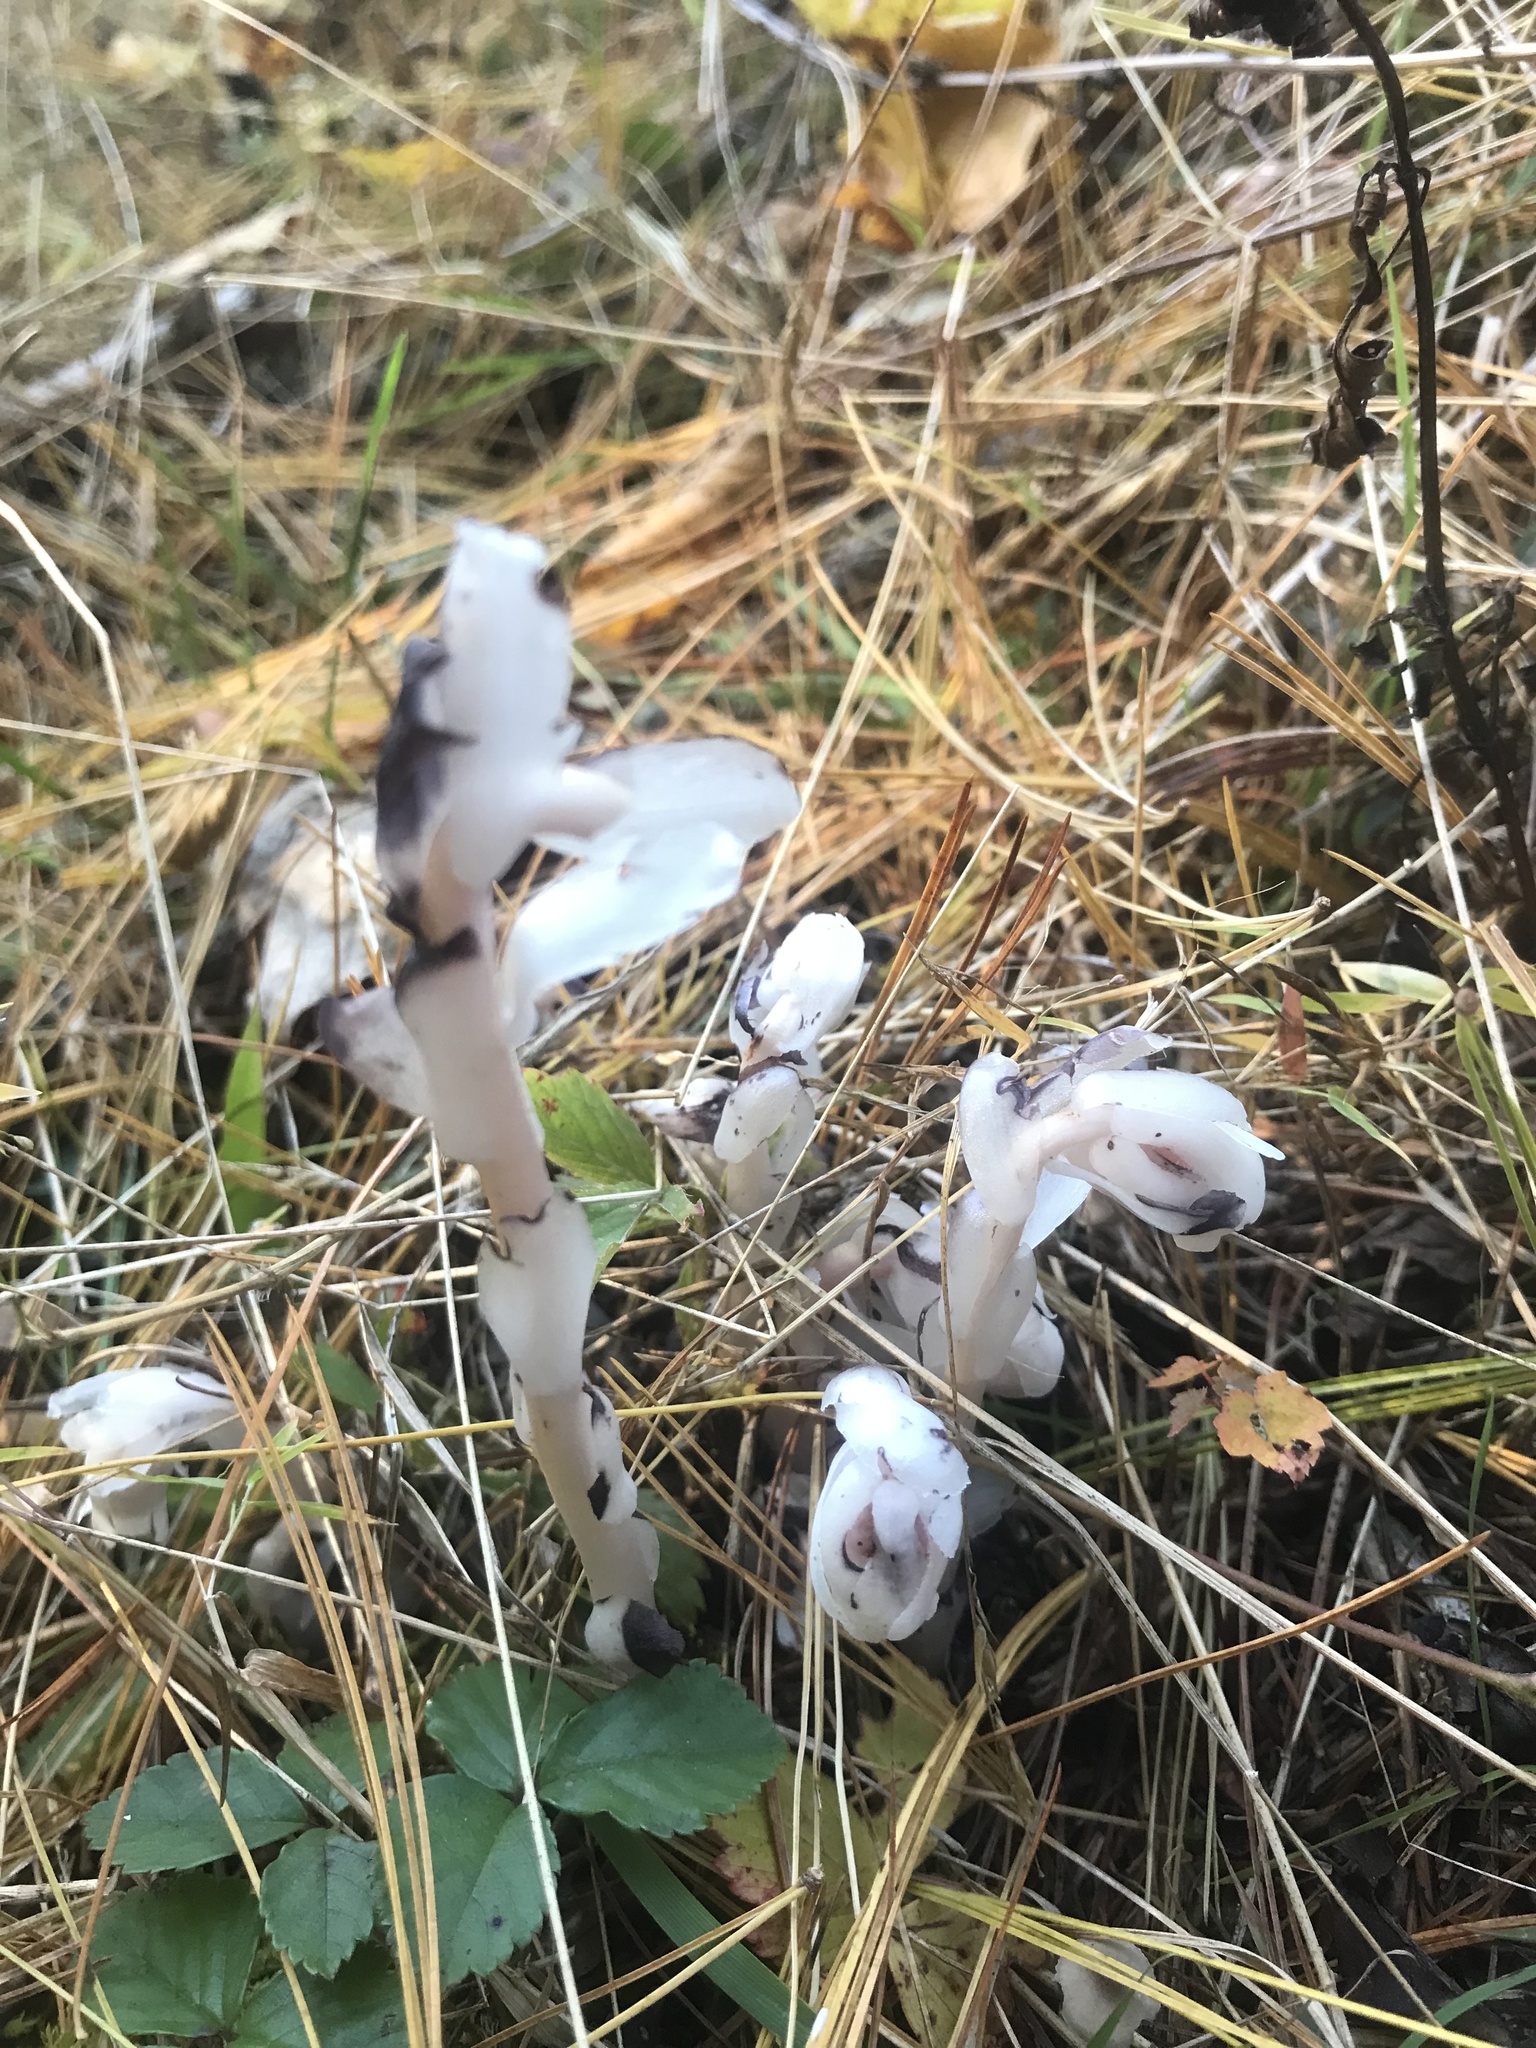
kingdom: Plantae
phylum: Tracheophyta
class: Magnoliopsida
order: Ericales
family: Ericaceae
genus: Monotropa
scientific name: Monotropa uniflora
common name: Convulsion root
